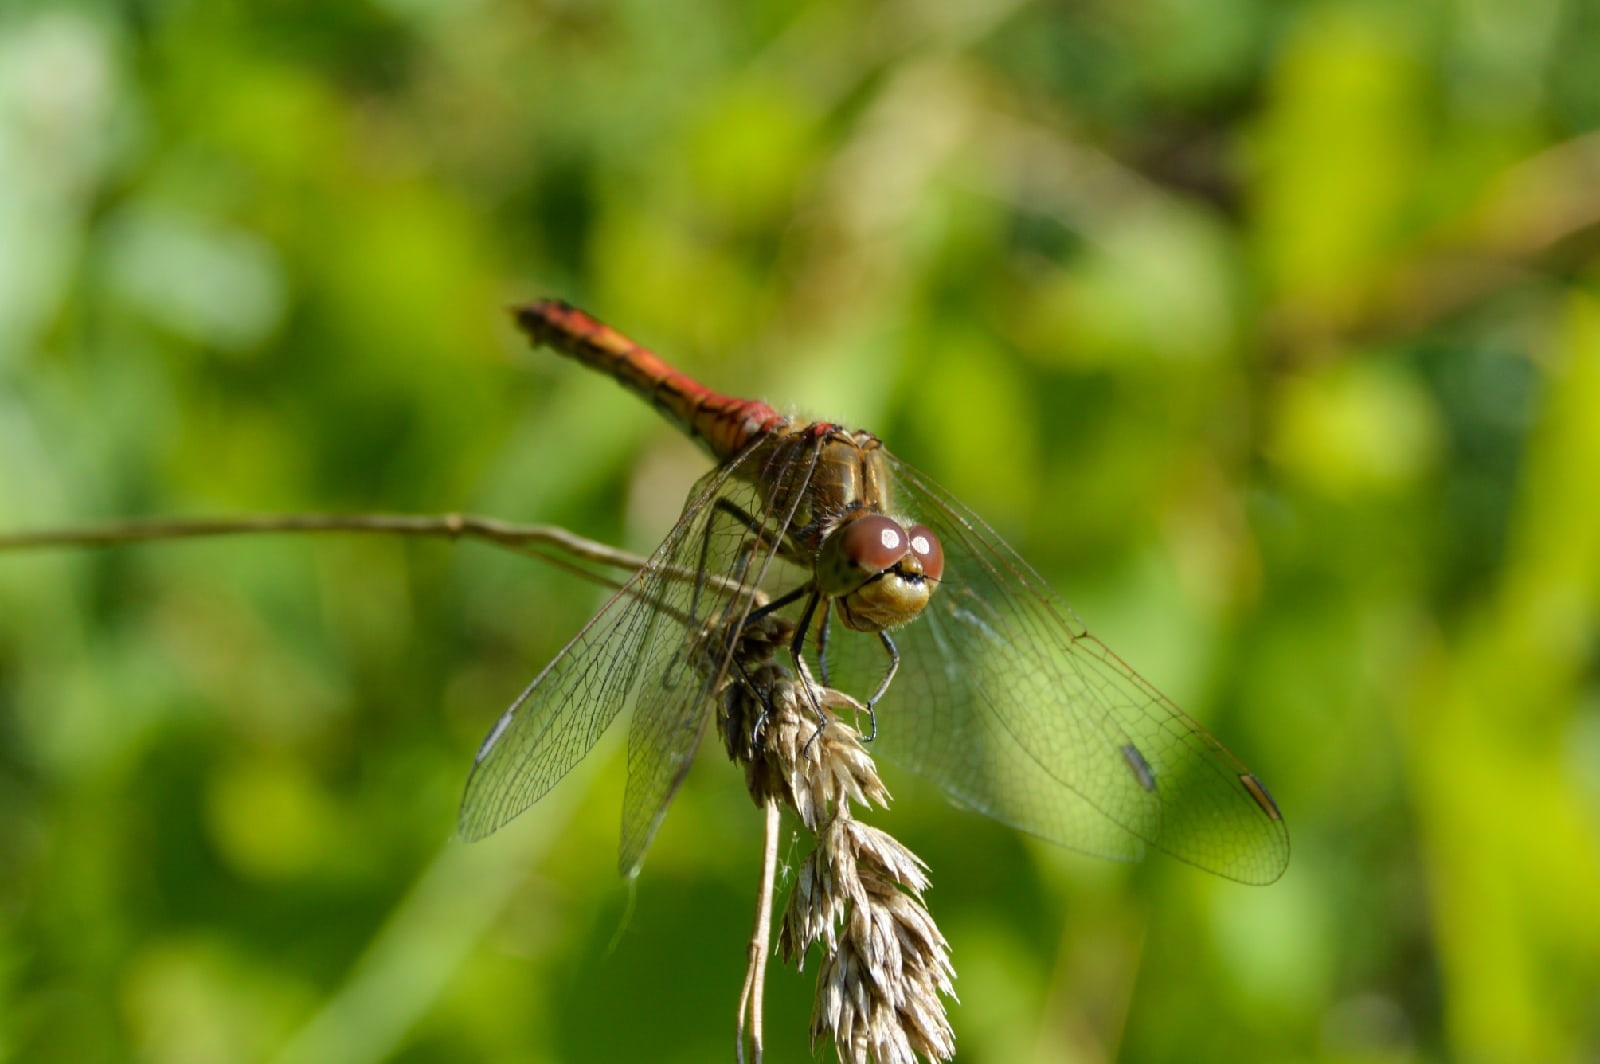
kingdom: Animalia
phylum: Arthropoda
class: Insecta
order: Odonata
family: Libellulidae
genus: Sympetrum
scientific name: Sympetrum vulgatum
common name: Vagrant darter
